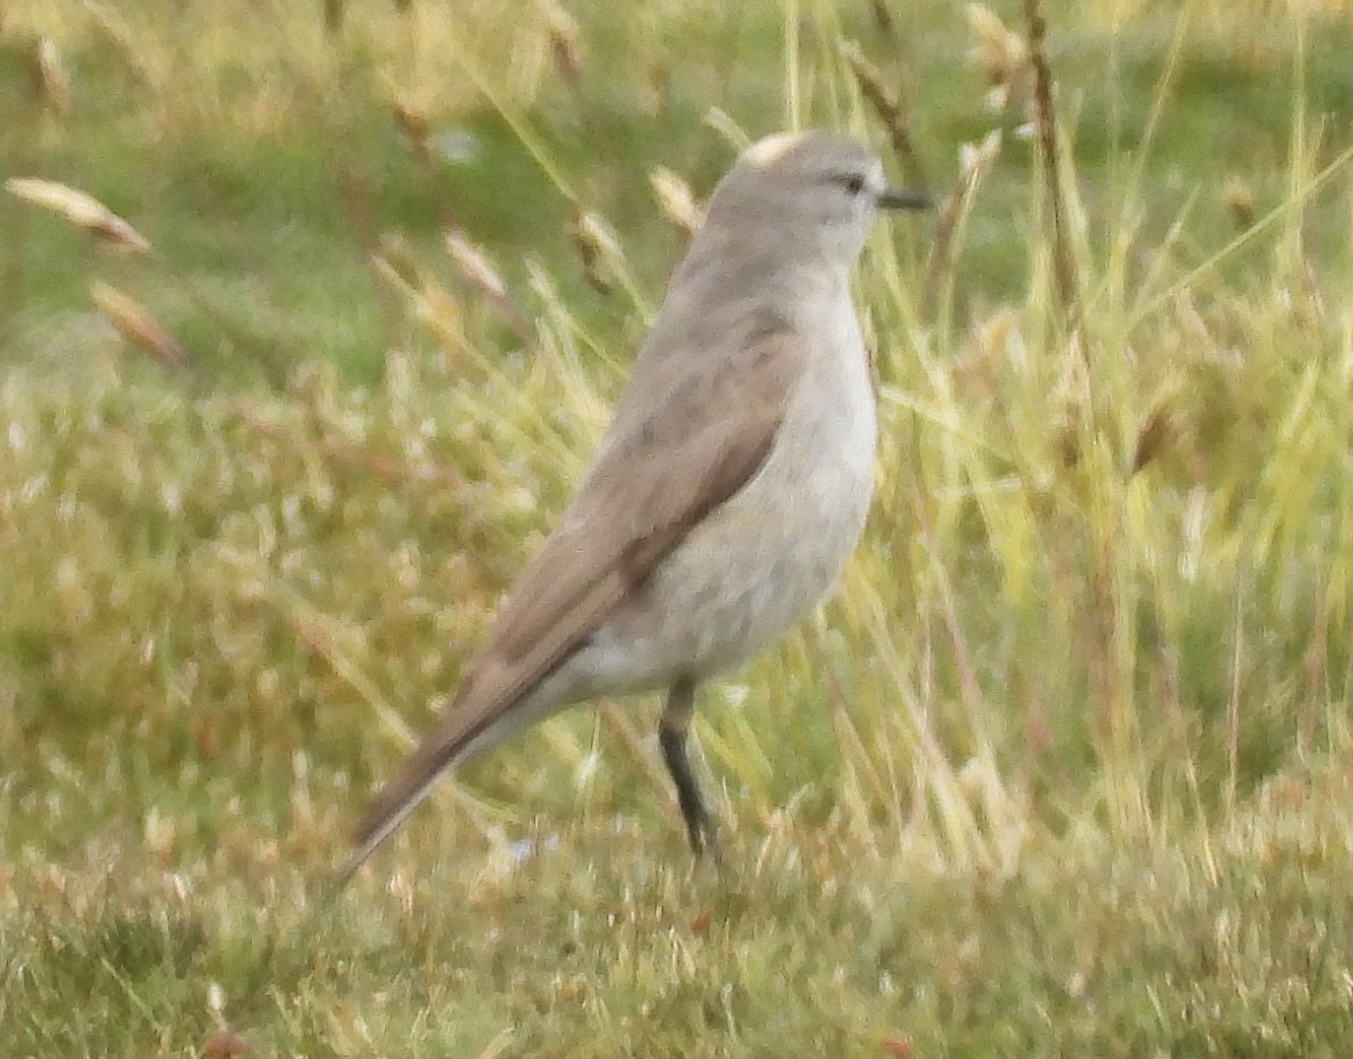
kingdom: Animalia
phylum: Chordata
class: Aves
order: Passeriformes
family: Tyrannidae
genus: Muscisaxicola
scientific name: Muscisaxicola flavinucha
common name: Ochre-naped ground tyrant
